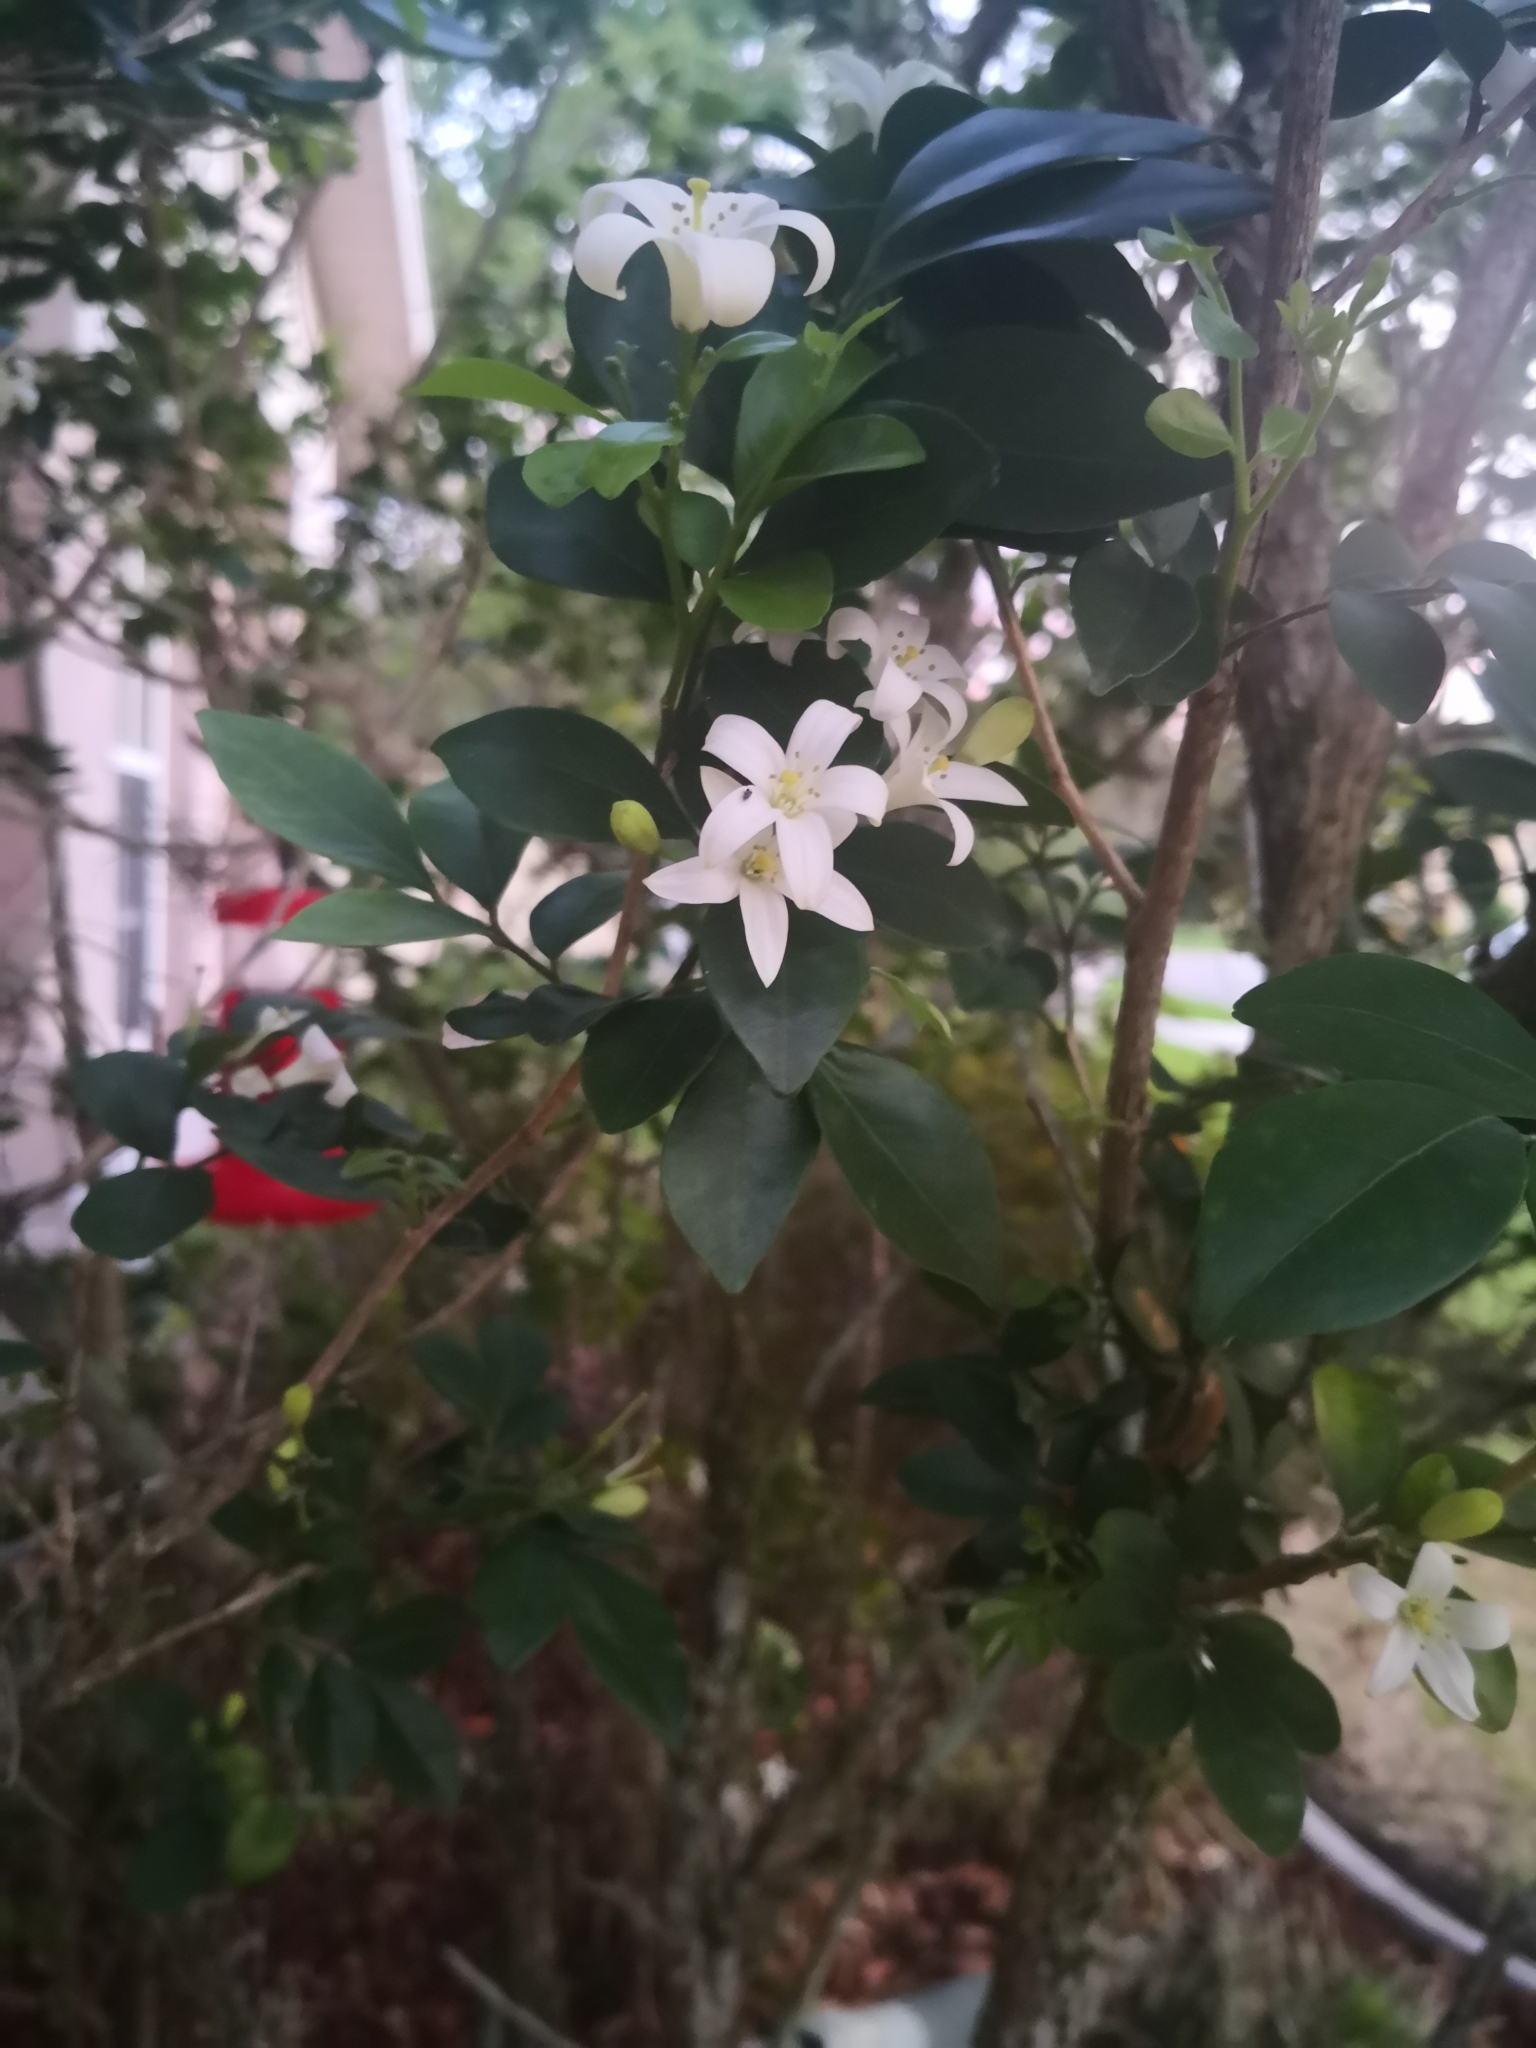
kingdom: Plantae
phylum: Tracheophyta
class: Magnoliopsida
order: Sapindales
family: Rutaceae
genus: Murraya
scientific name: Murraya paniculata
